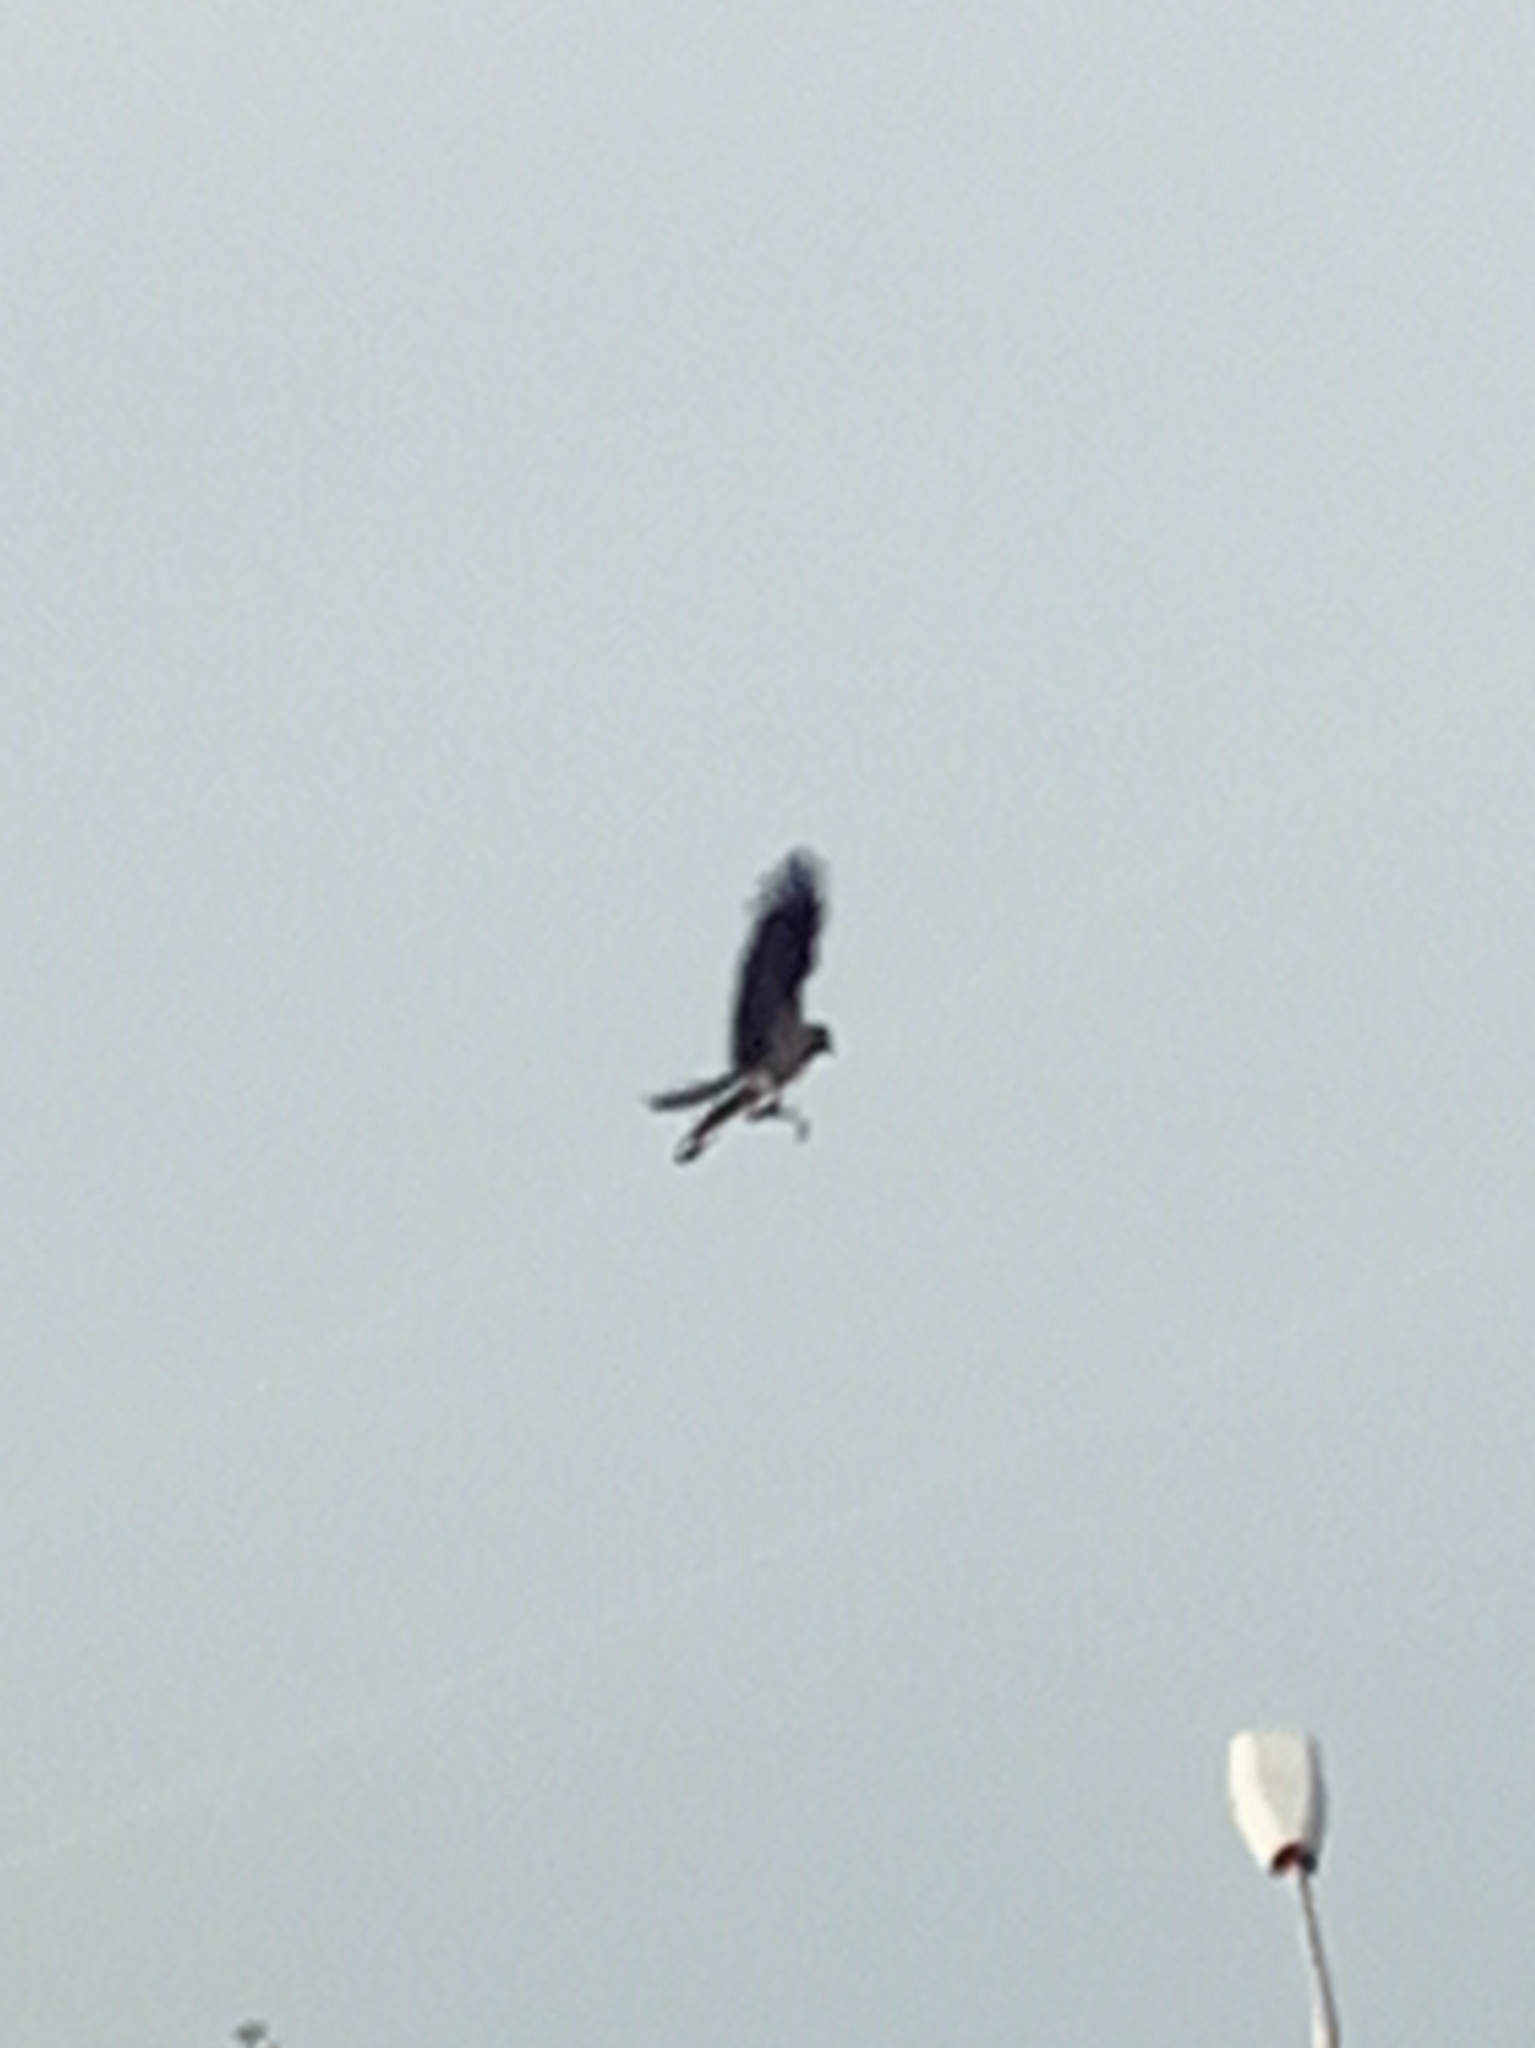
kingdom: Animalia
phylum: Chordata
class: Aves
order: Passeriformes
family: Corvidae
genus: Corvus
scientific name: Corvus cornix
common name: Hooded crow
